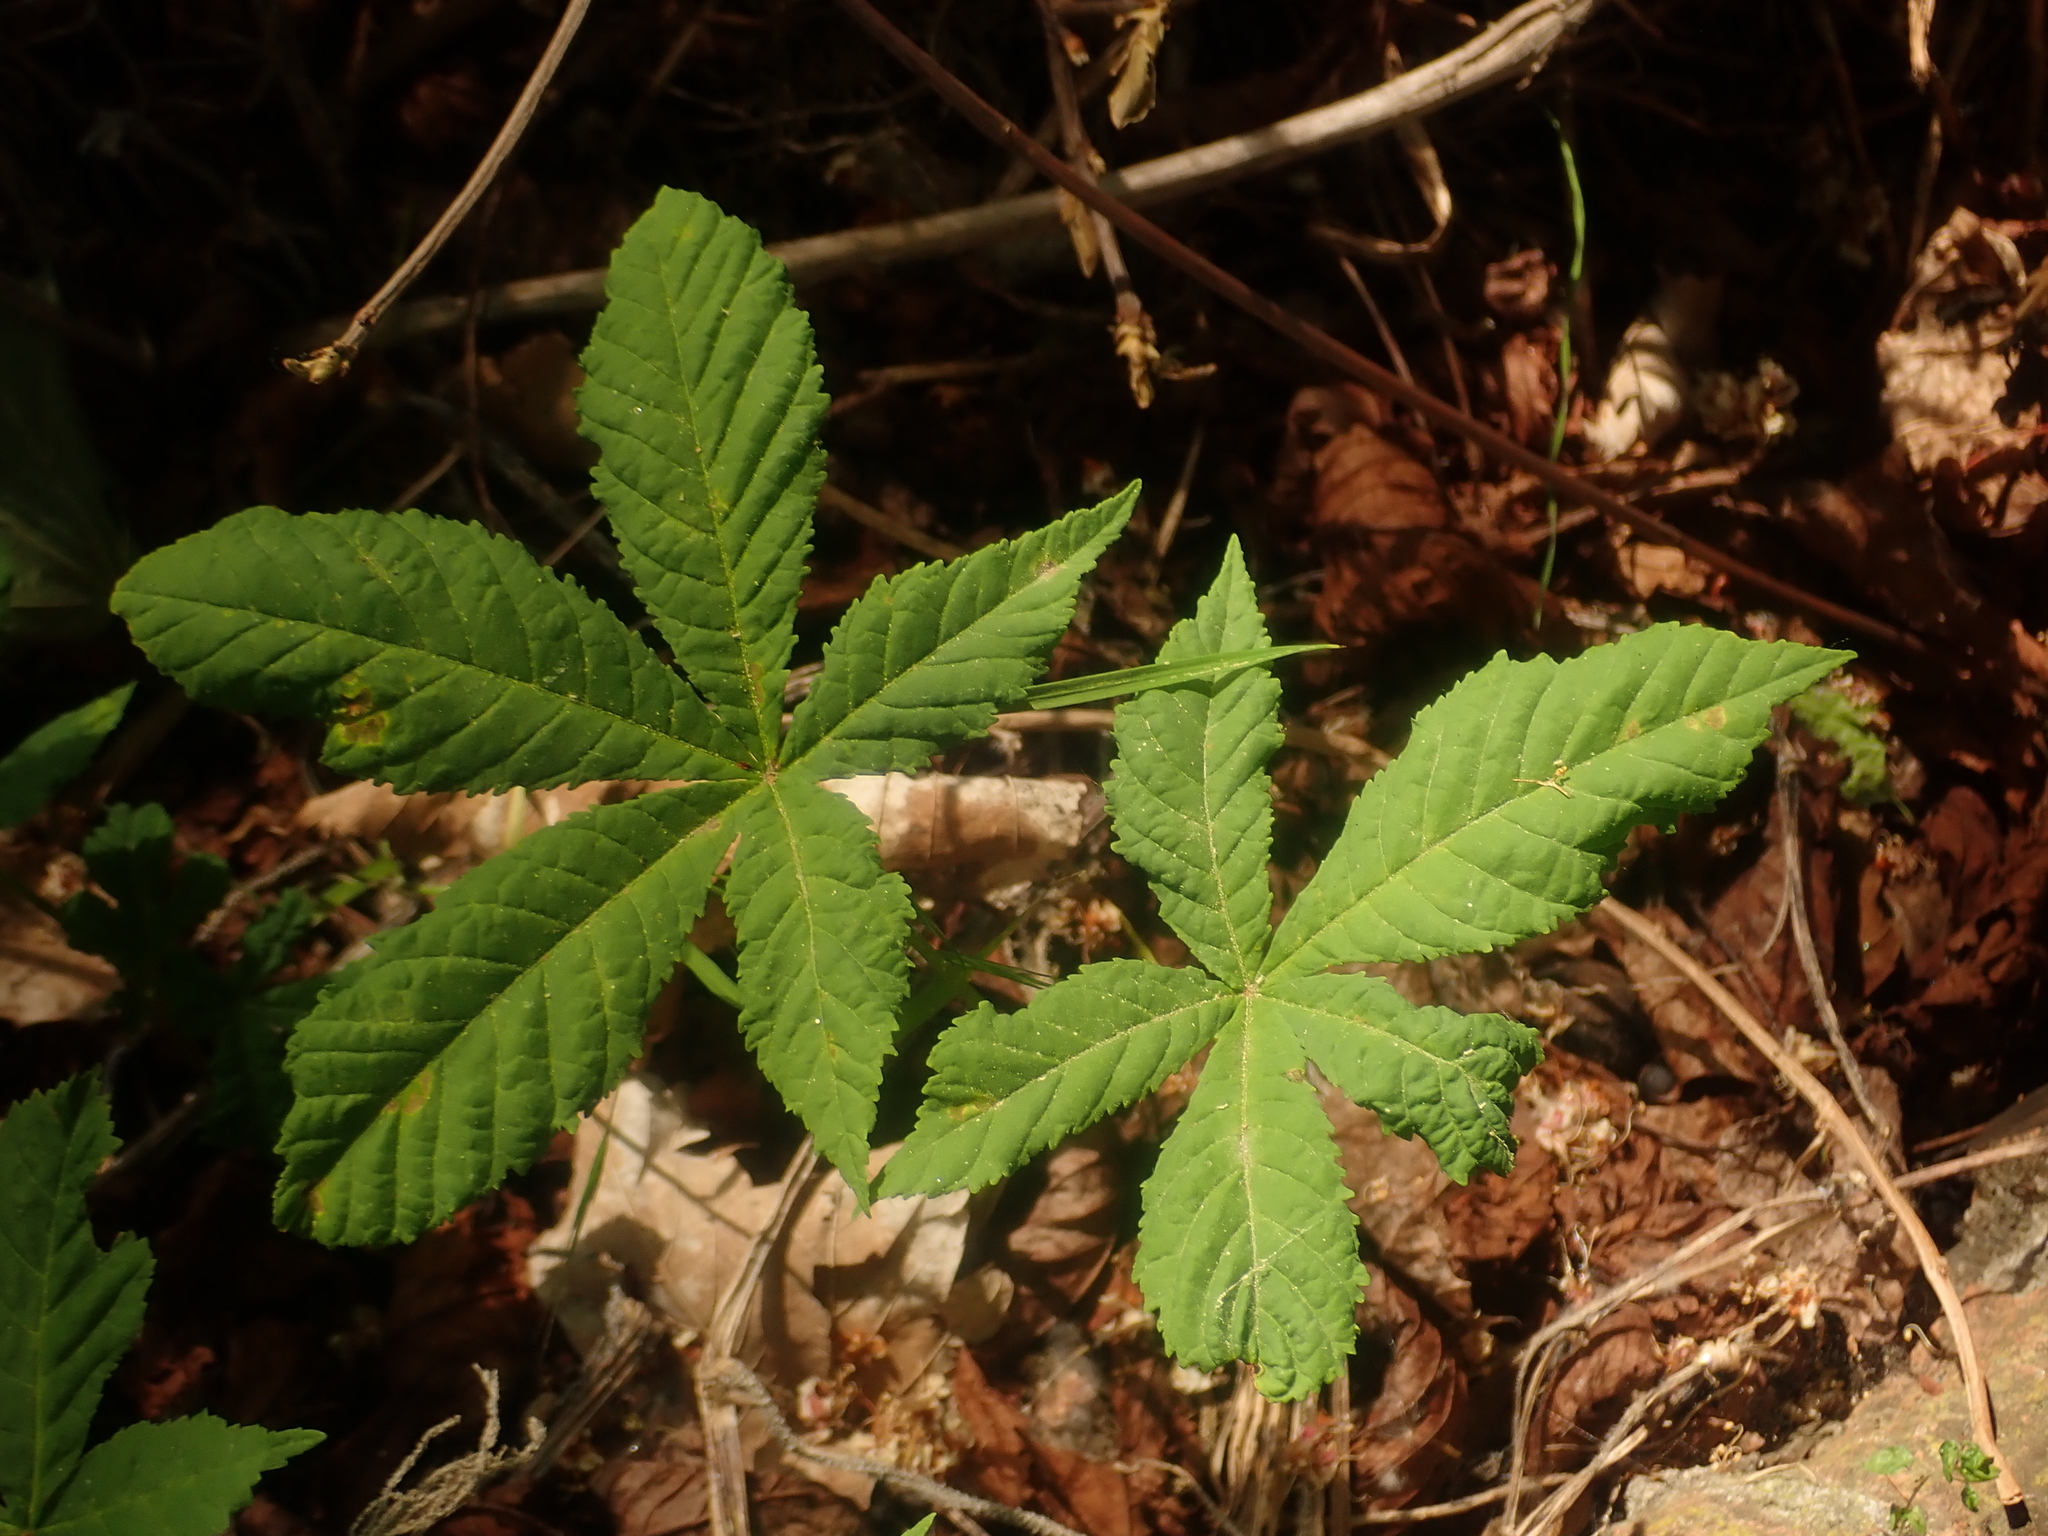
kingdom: Plantae
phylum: Tracheophyta
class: Magnoliopsida
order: Sapindales
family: Sapindaceae
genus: Aesculus
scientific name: Aesculus hippocastanum
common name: Horse-chestnut
